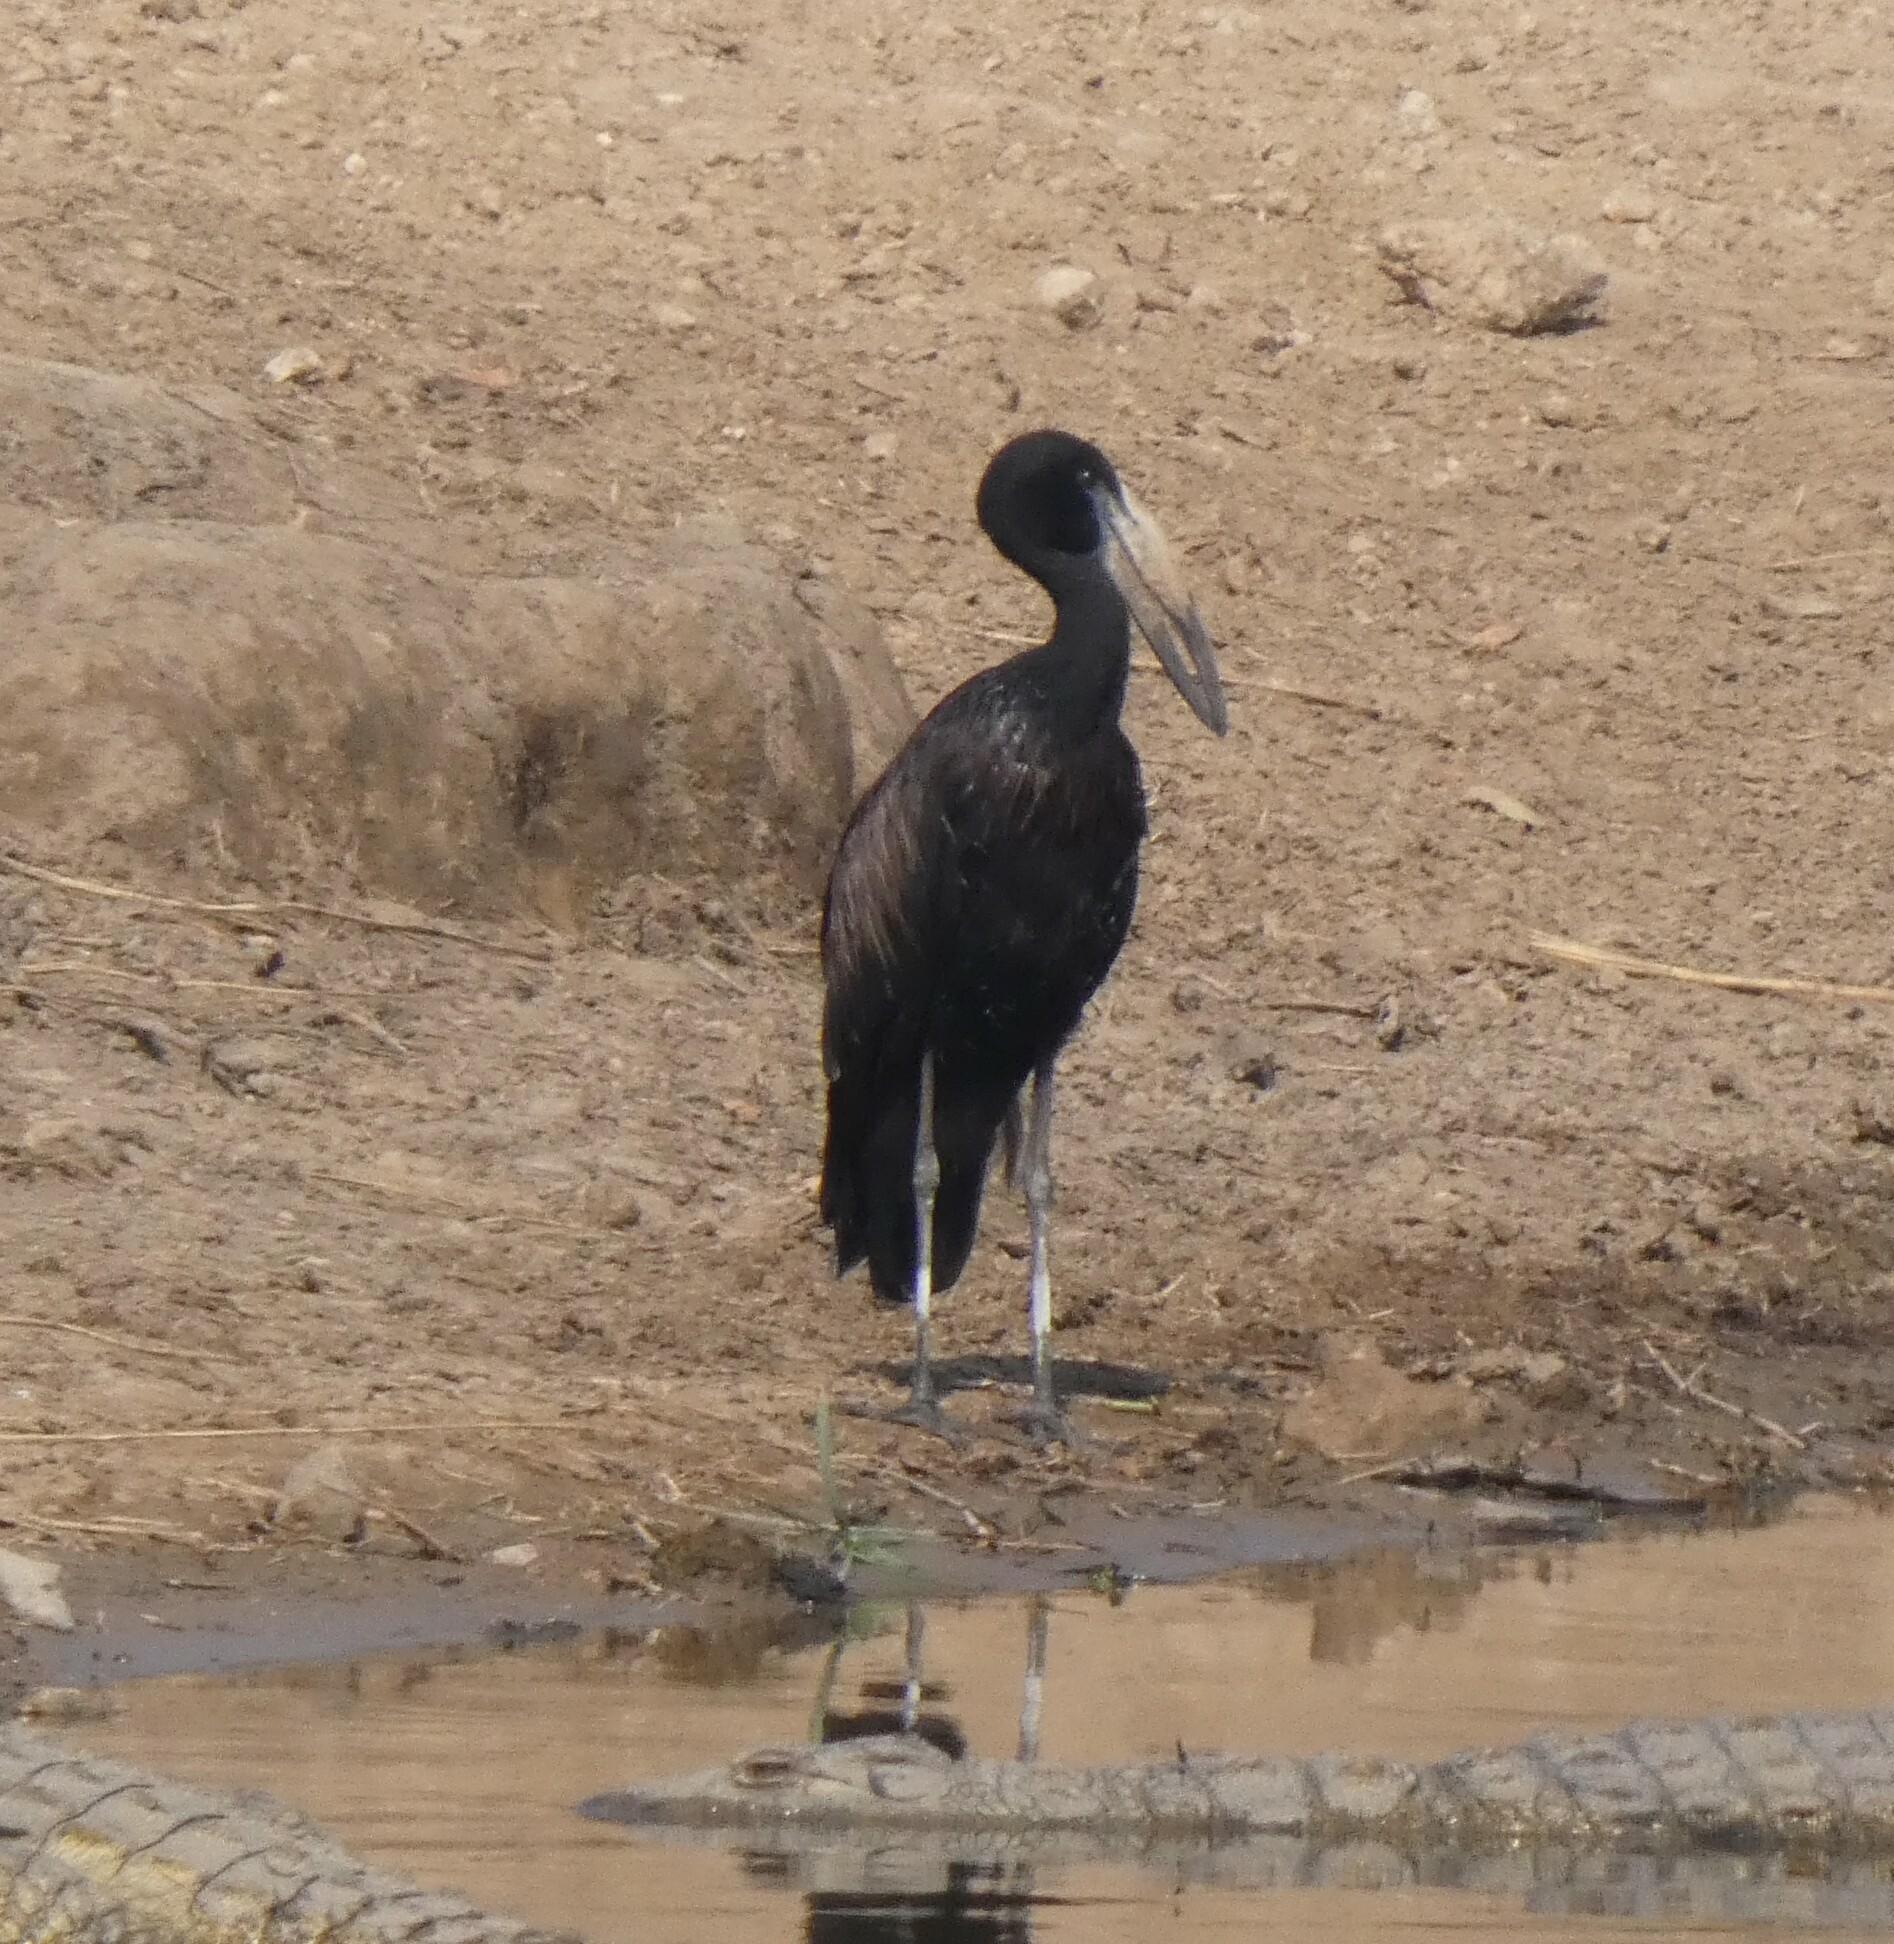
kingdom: Animalia
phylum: Chordata
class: Aves
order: Ciconiiformes
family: Ciconiidae
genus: Anastomus
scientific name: Anastomus lamelligerus
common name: African openbill
